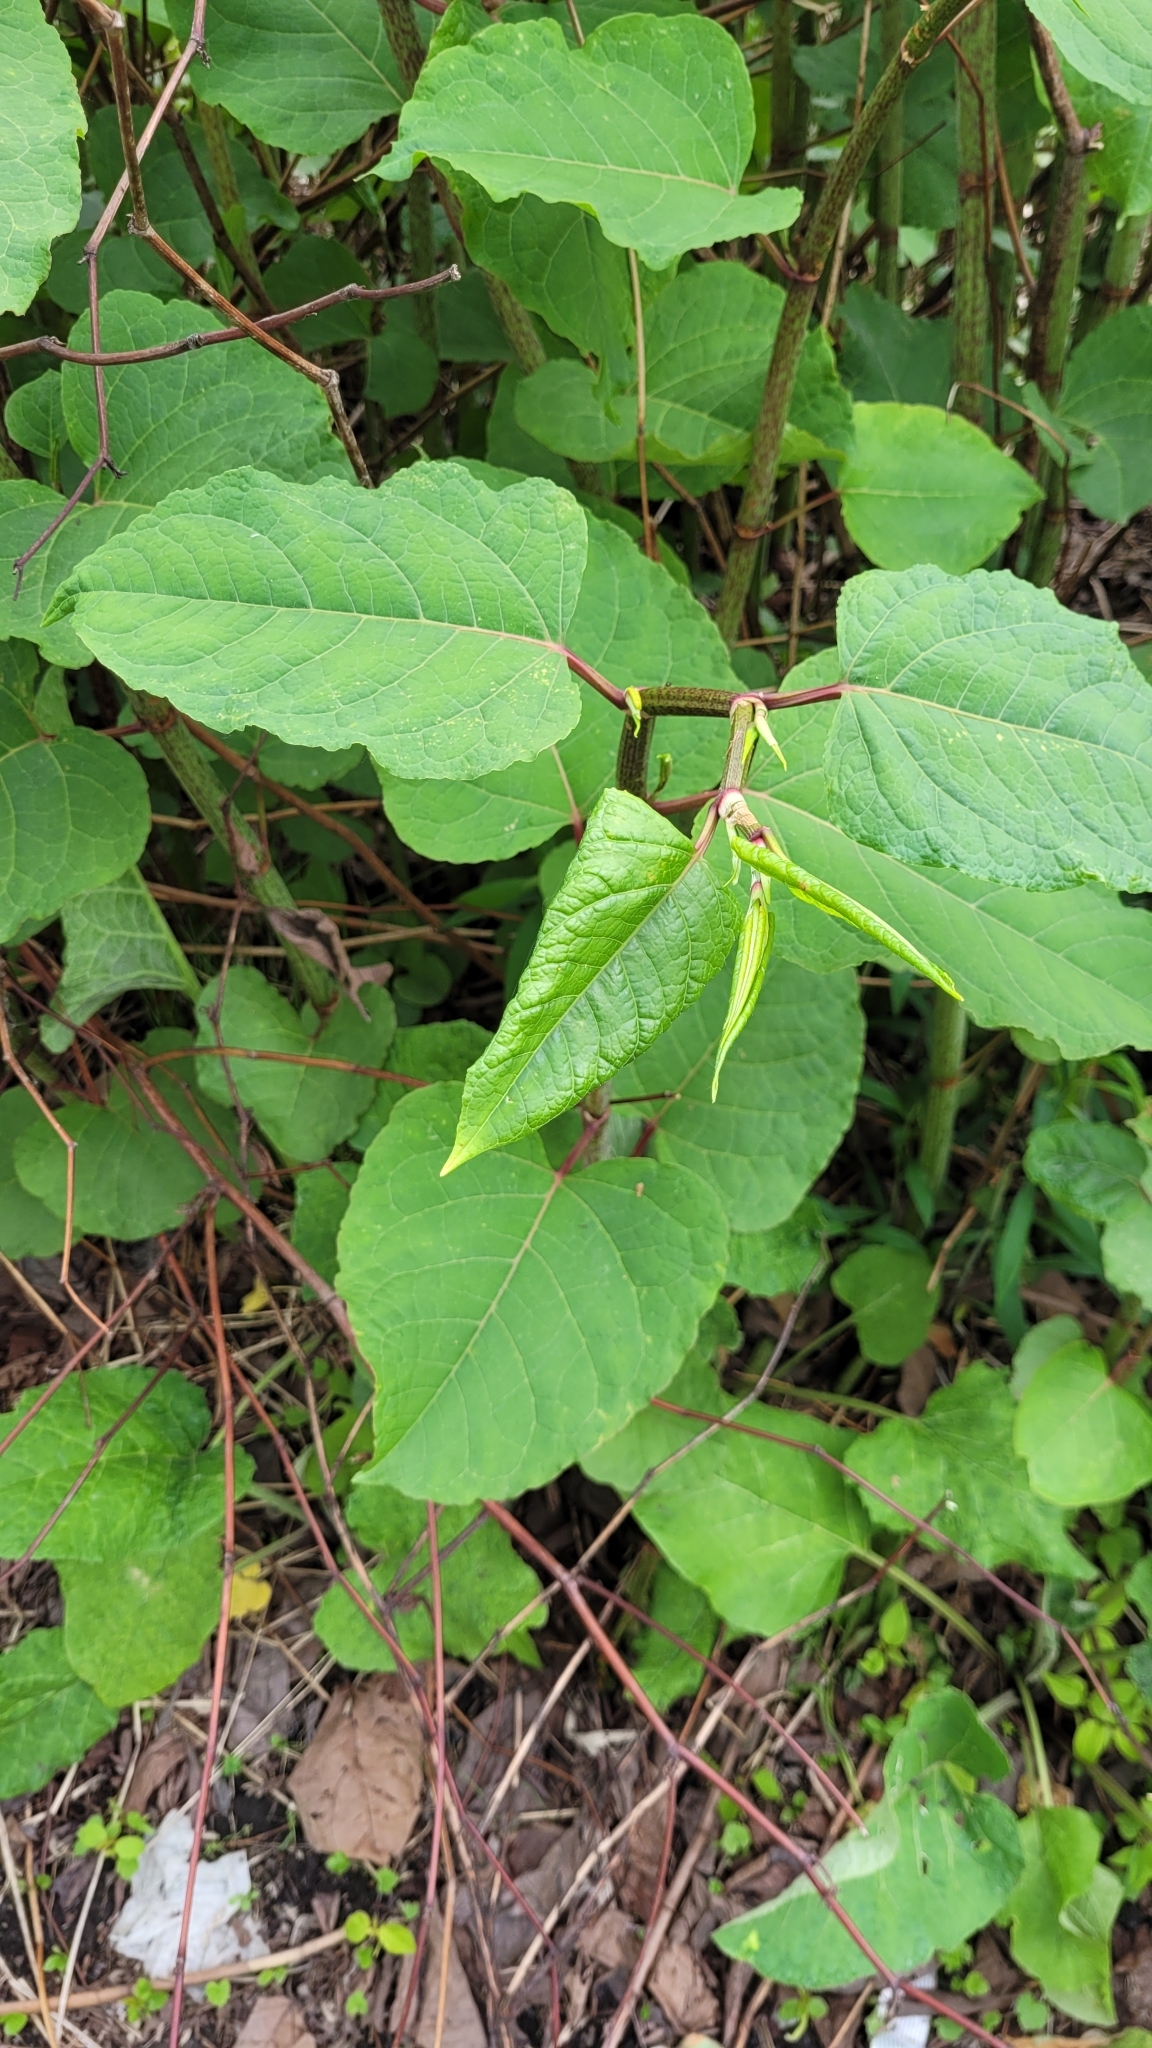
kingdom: Plantae
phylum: Tracheophyta
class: Magnoliopsida
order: Caryophyllales
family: Polygonaceae
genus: Reynoutria
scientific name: Reynoutria bohemica
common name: Bohemian knotweed
